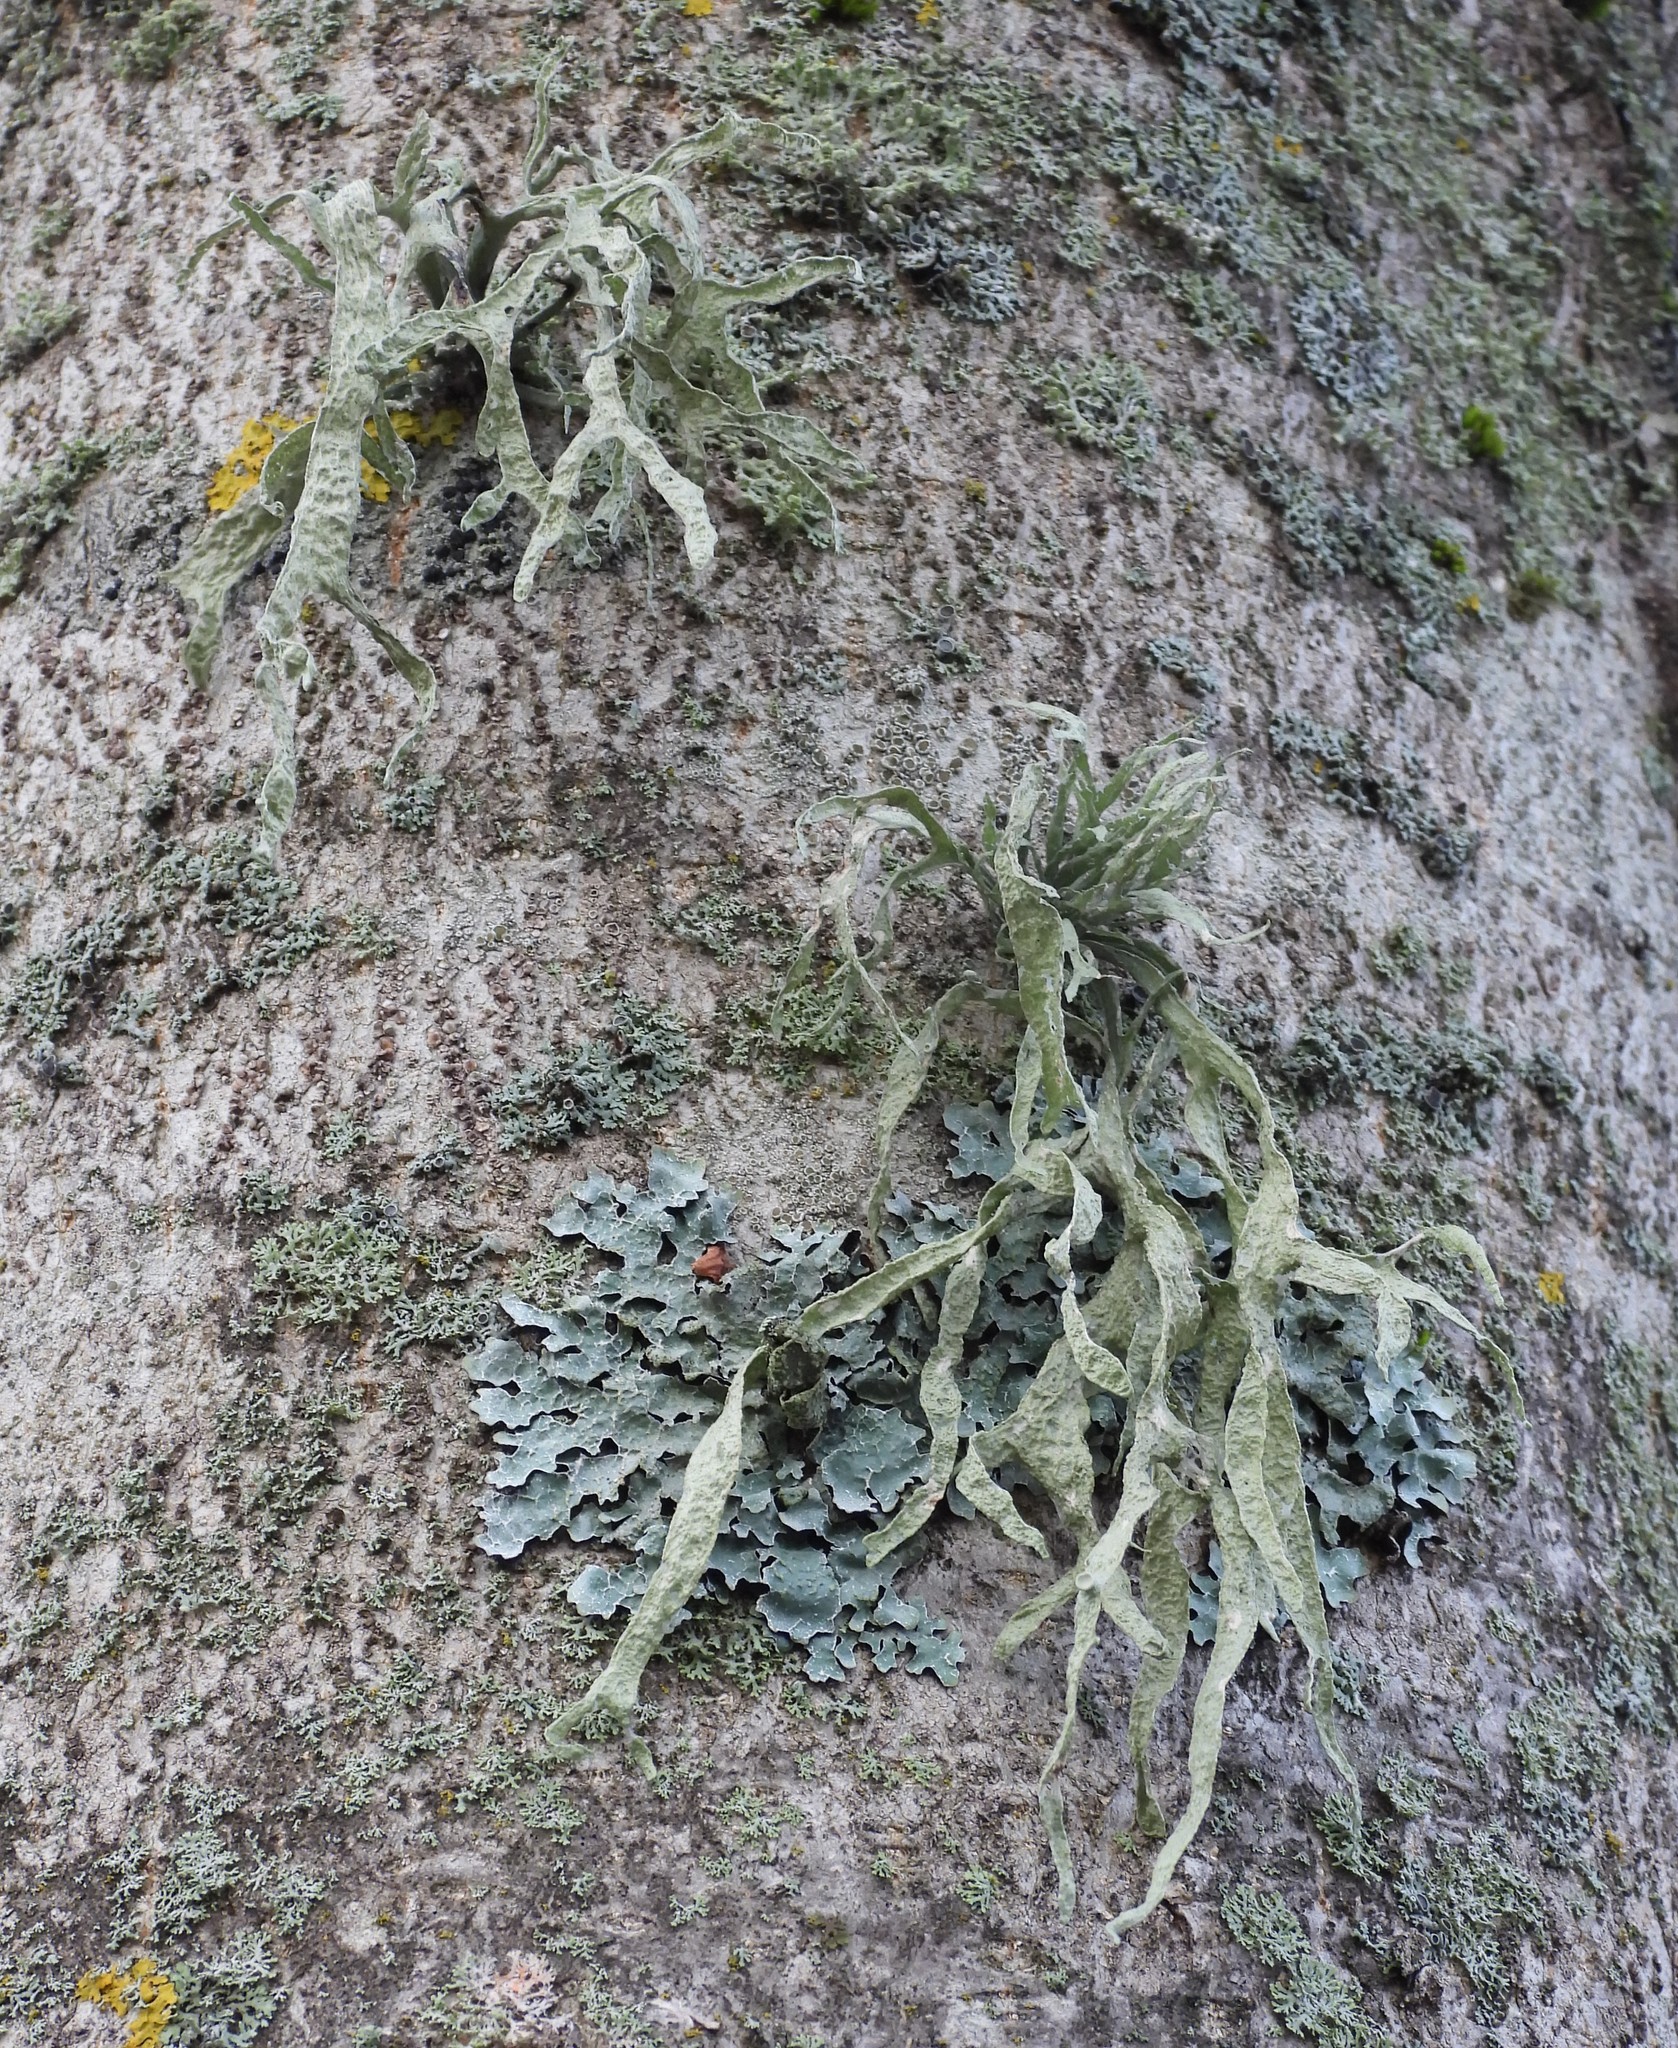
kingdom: Fungi
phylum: Ascomycota
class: Lecanoromycetes
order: Lecanorales
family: Ramalinaceae
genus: Ramalina
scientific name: Ramalina fraxinea
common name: Cartilage lichen
